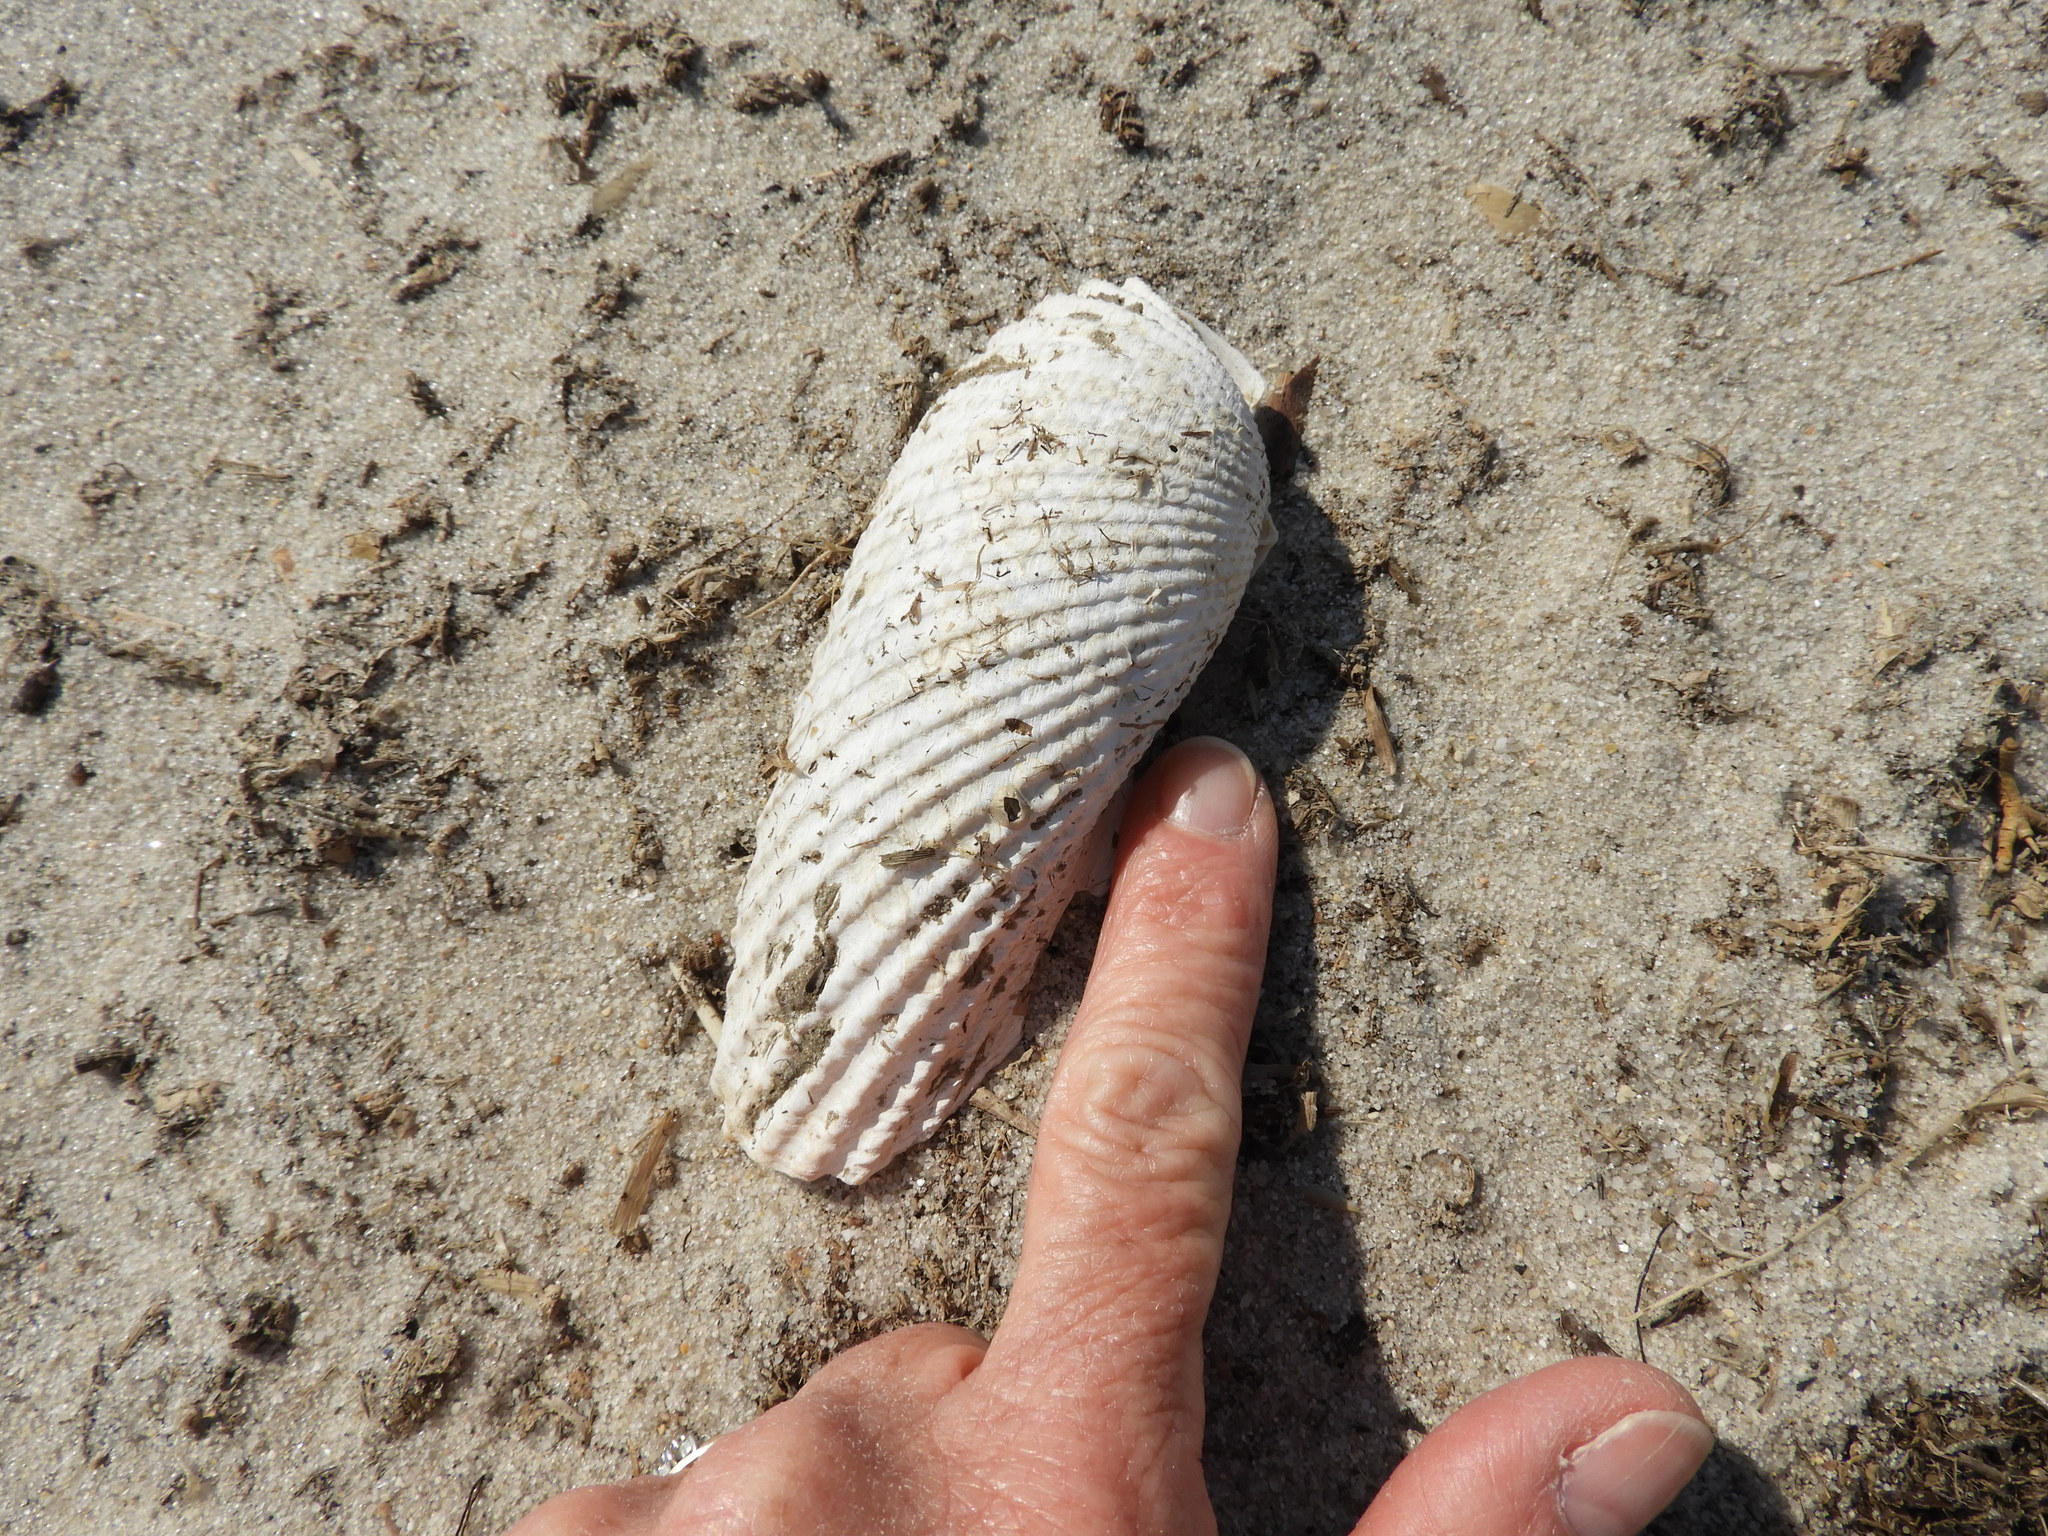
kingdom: Animalia
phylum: Mollusca
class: Bivalvia
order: Myida
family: Pholadidae
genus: Cyrtopleura
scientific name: Cyrtopleura costata
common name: Angel wing
